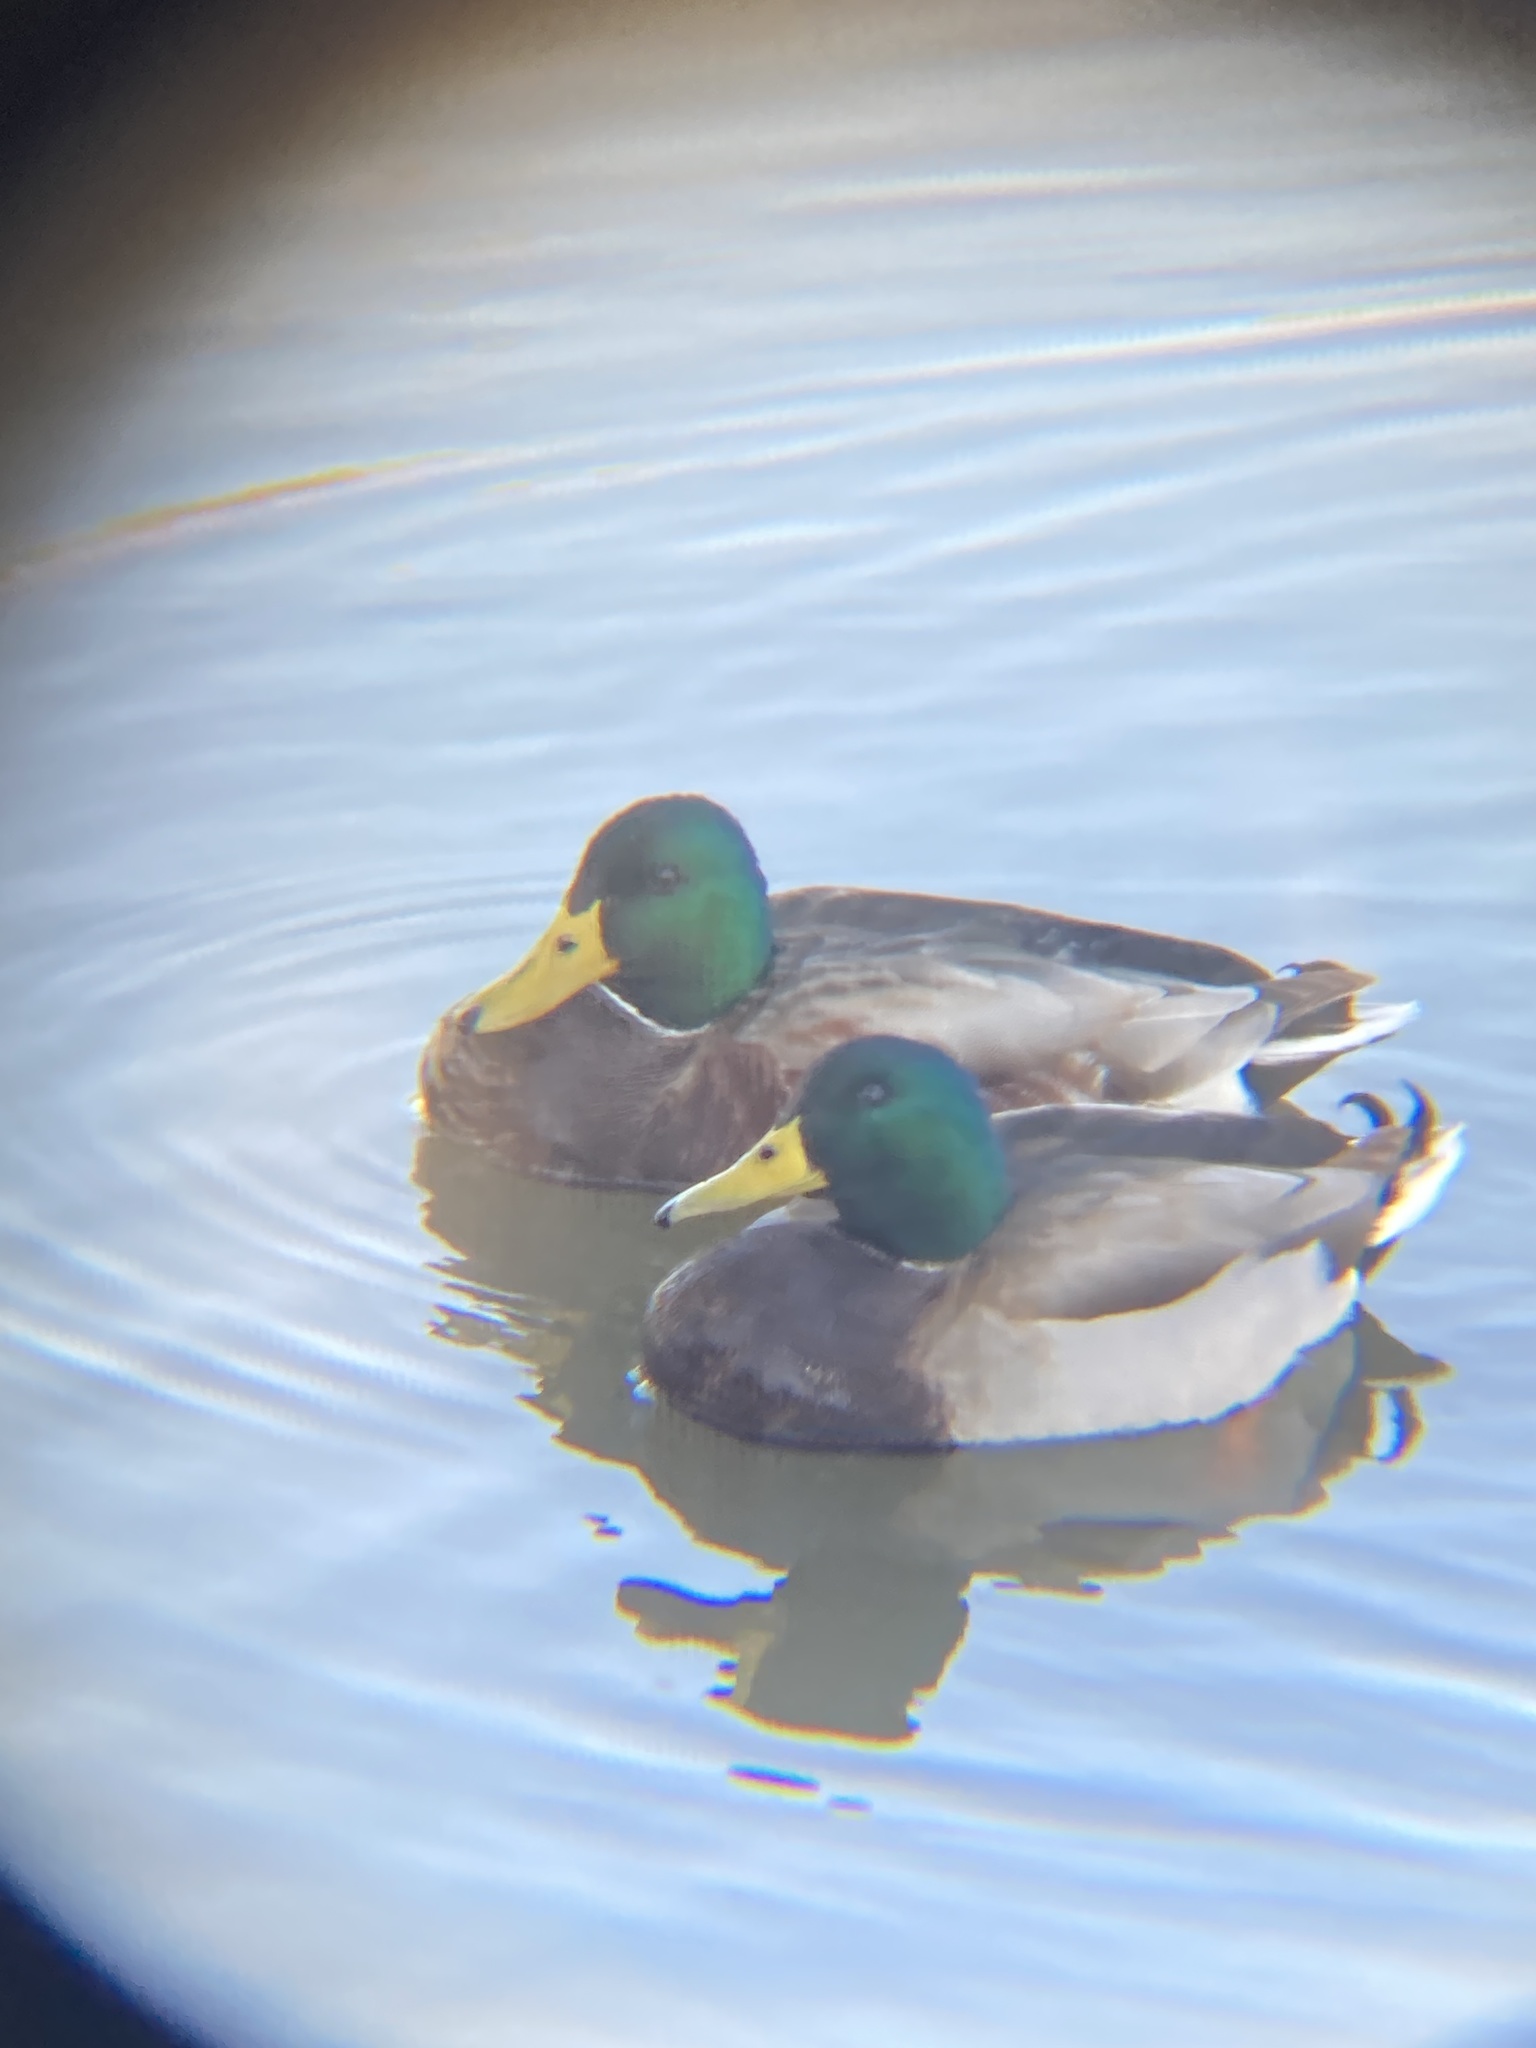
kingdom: Animalia
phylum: Chordata
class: Aves
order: Anseriformes
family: Anatidae
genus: Anas
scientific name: Anas platyrhynchos
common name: Mallard
